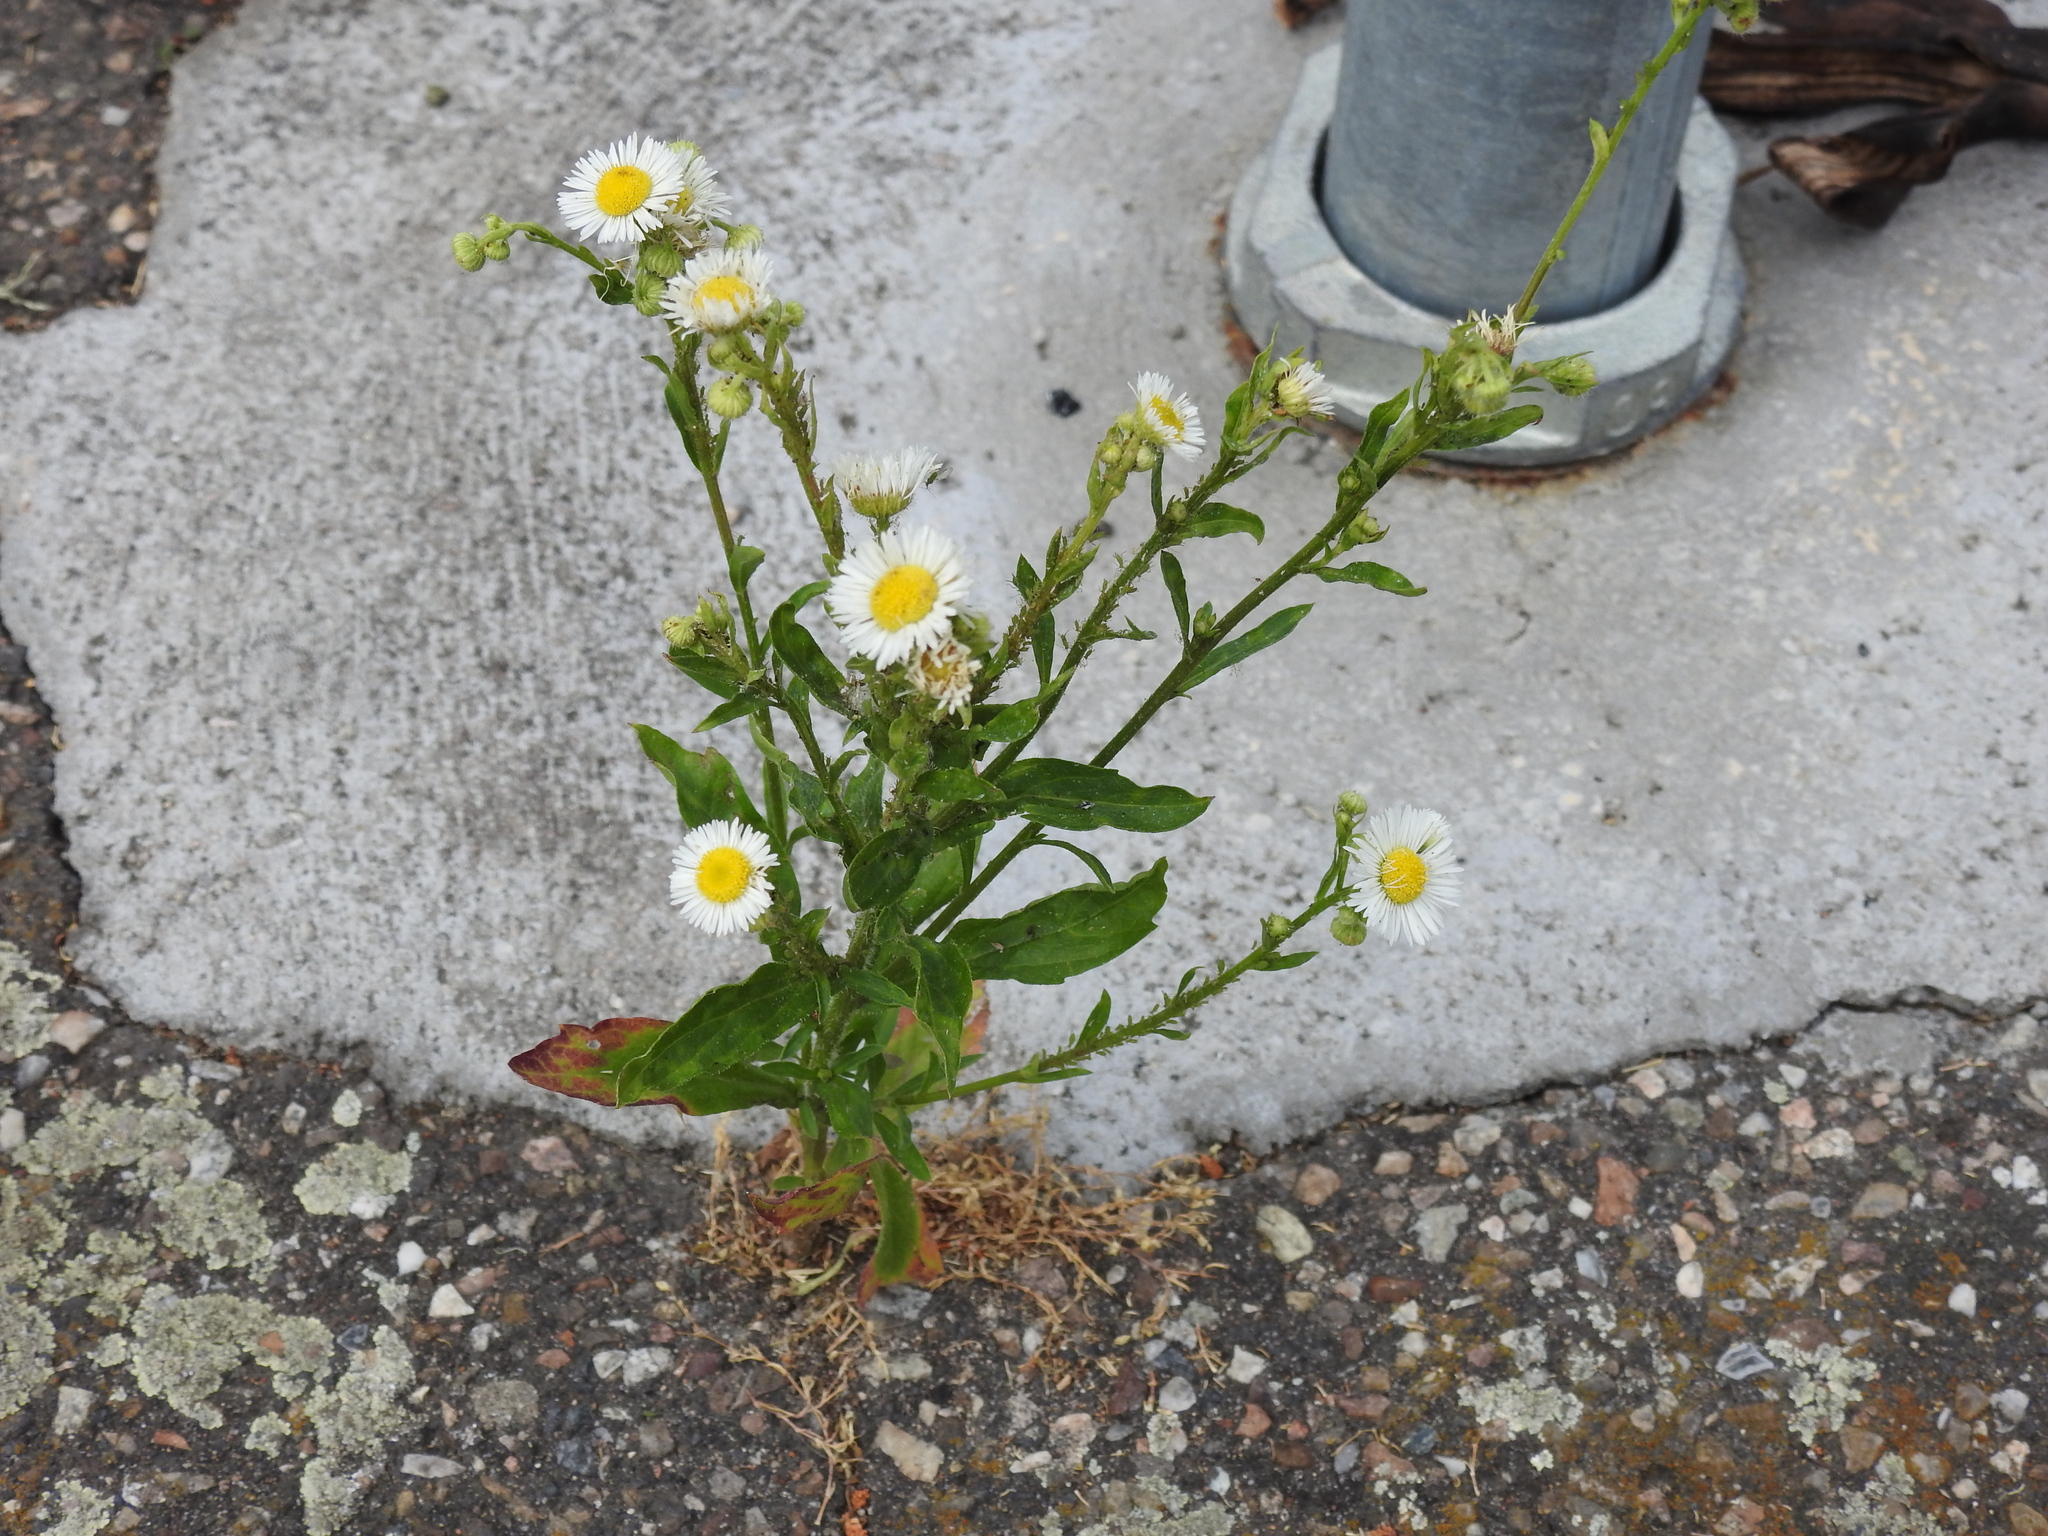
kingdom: Plantae
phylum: Tracheophyta
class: Magnoliopsida
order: Asterales
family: Asteraceae
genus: Erigeron
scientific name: Erigeron annuus
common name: Tall fleabane
